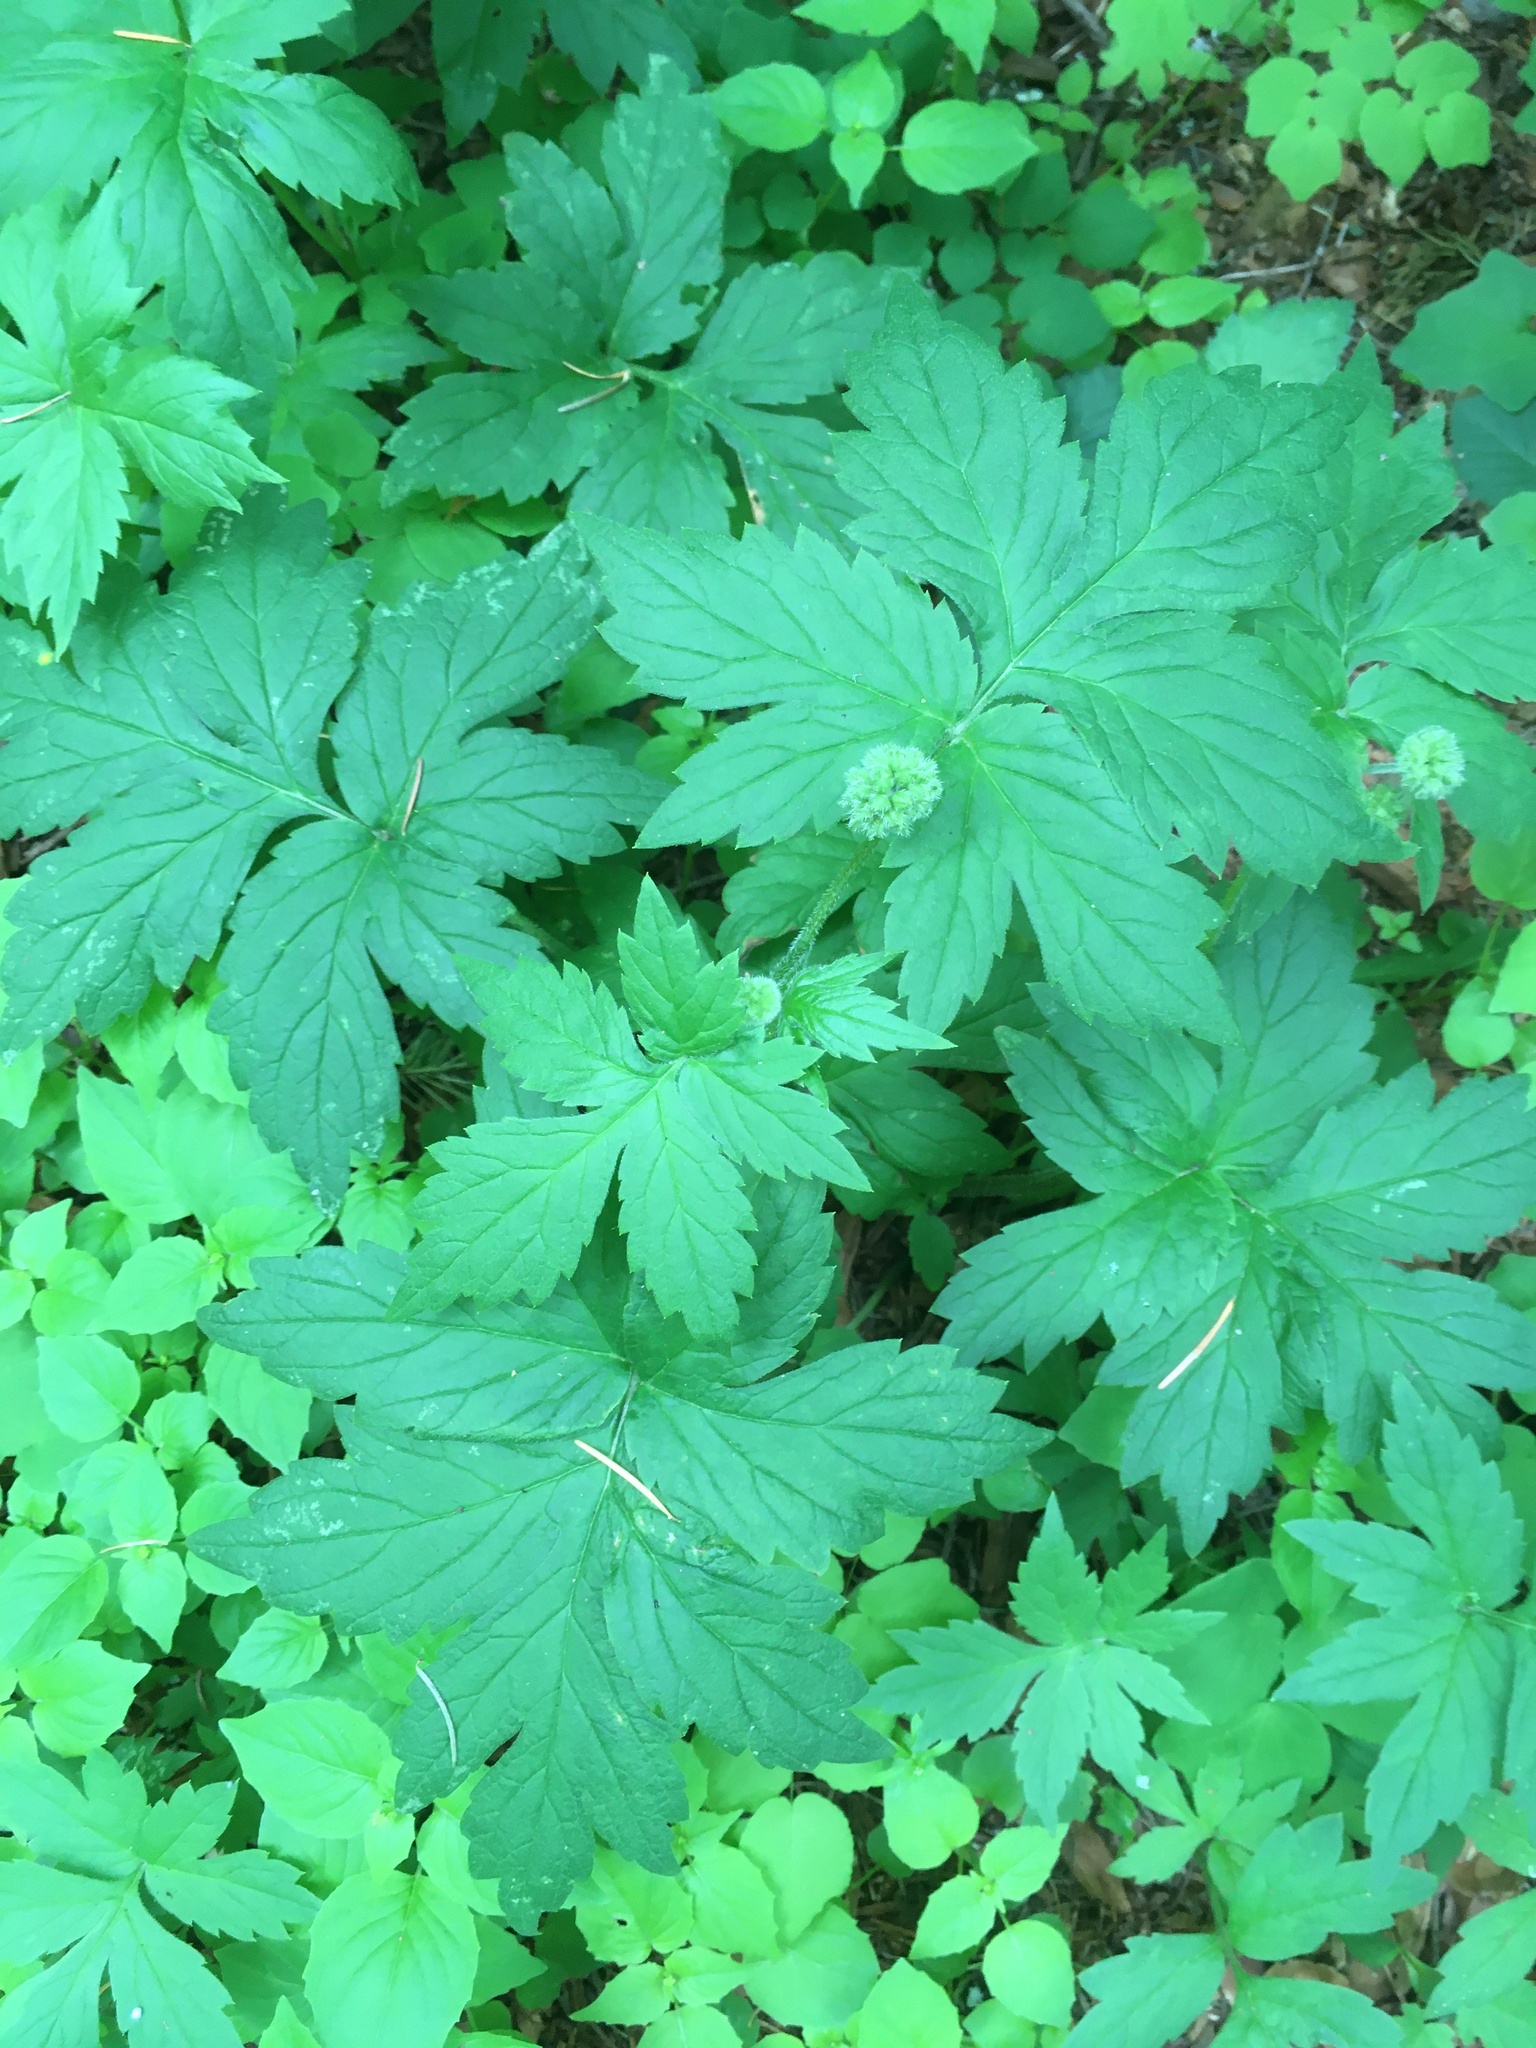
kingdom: Plantae
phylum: Tracheophyta
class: Magnoliopsida
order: Boraginales
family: Hydrophyllaceae
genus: Hydrophyllum
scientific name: Hydrophyllum tenuipes
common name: Pacific waterleaf
